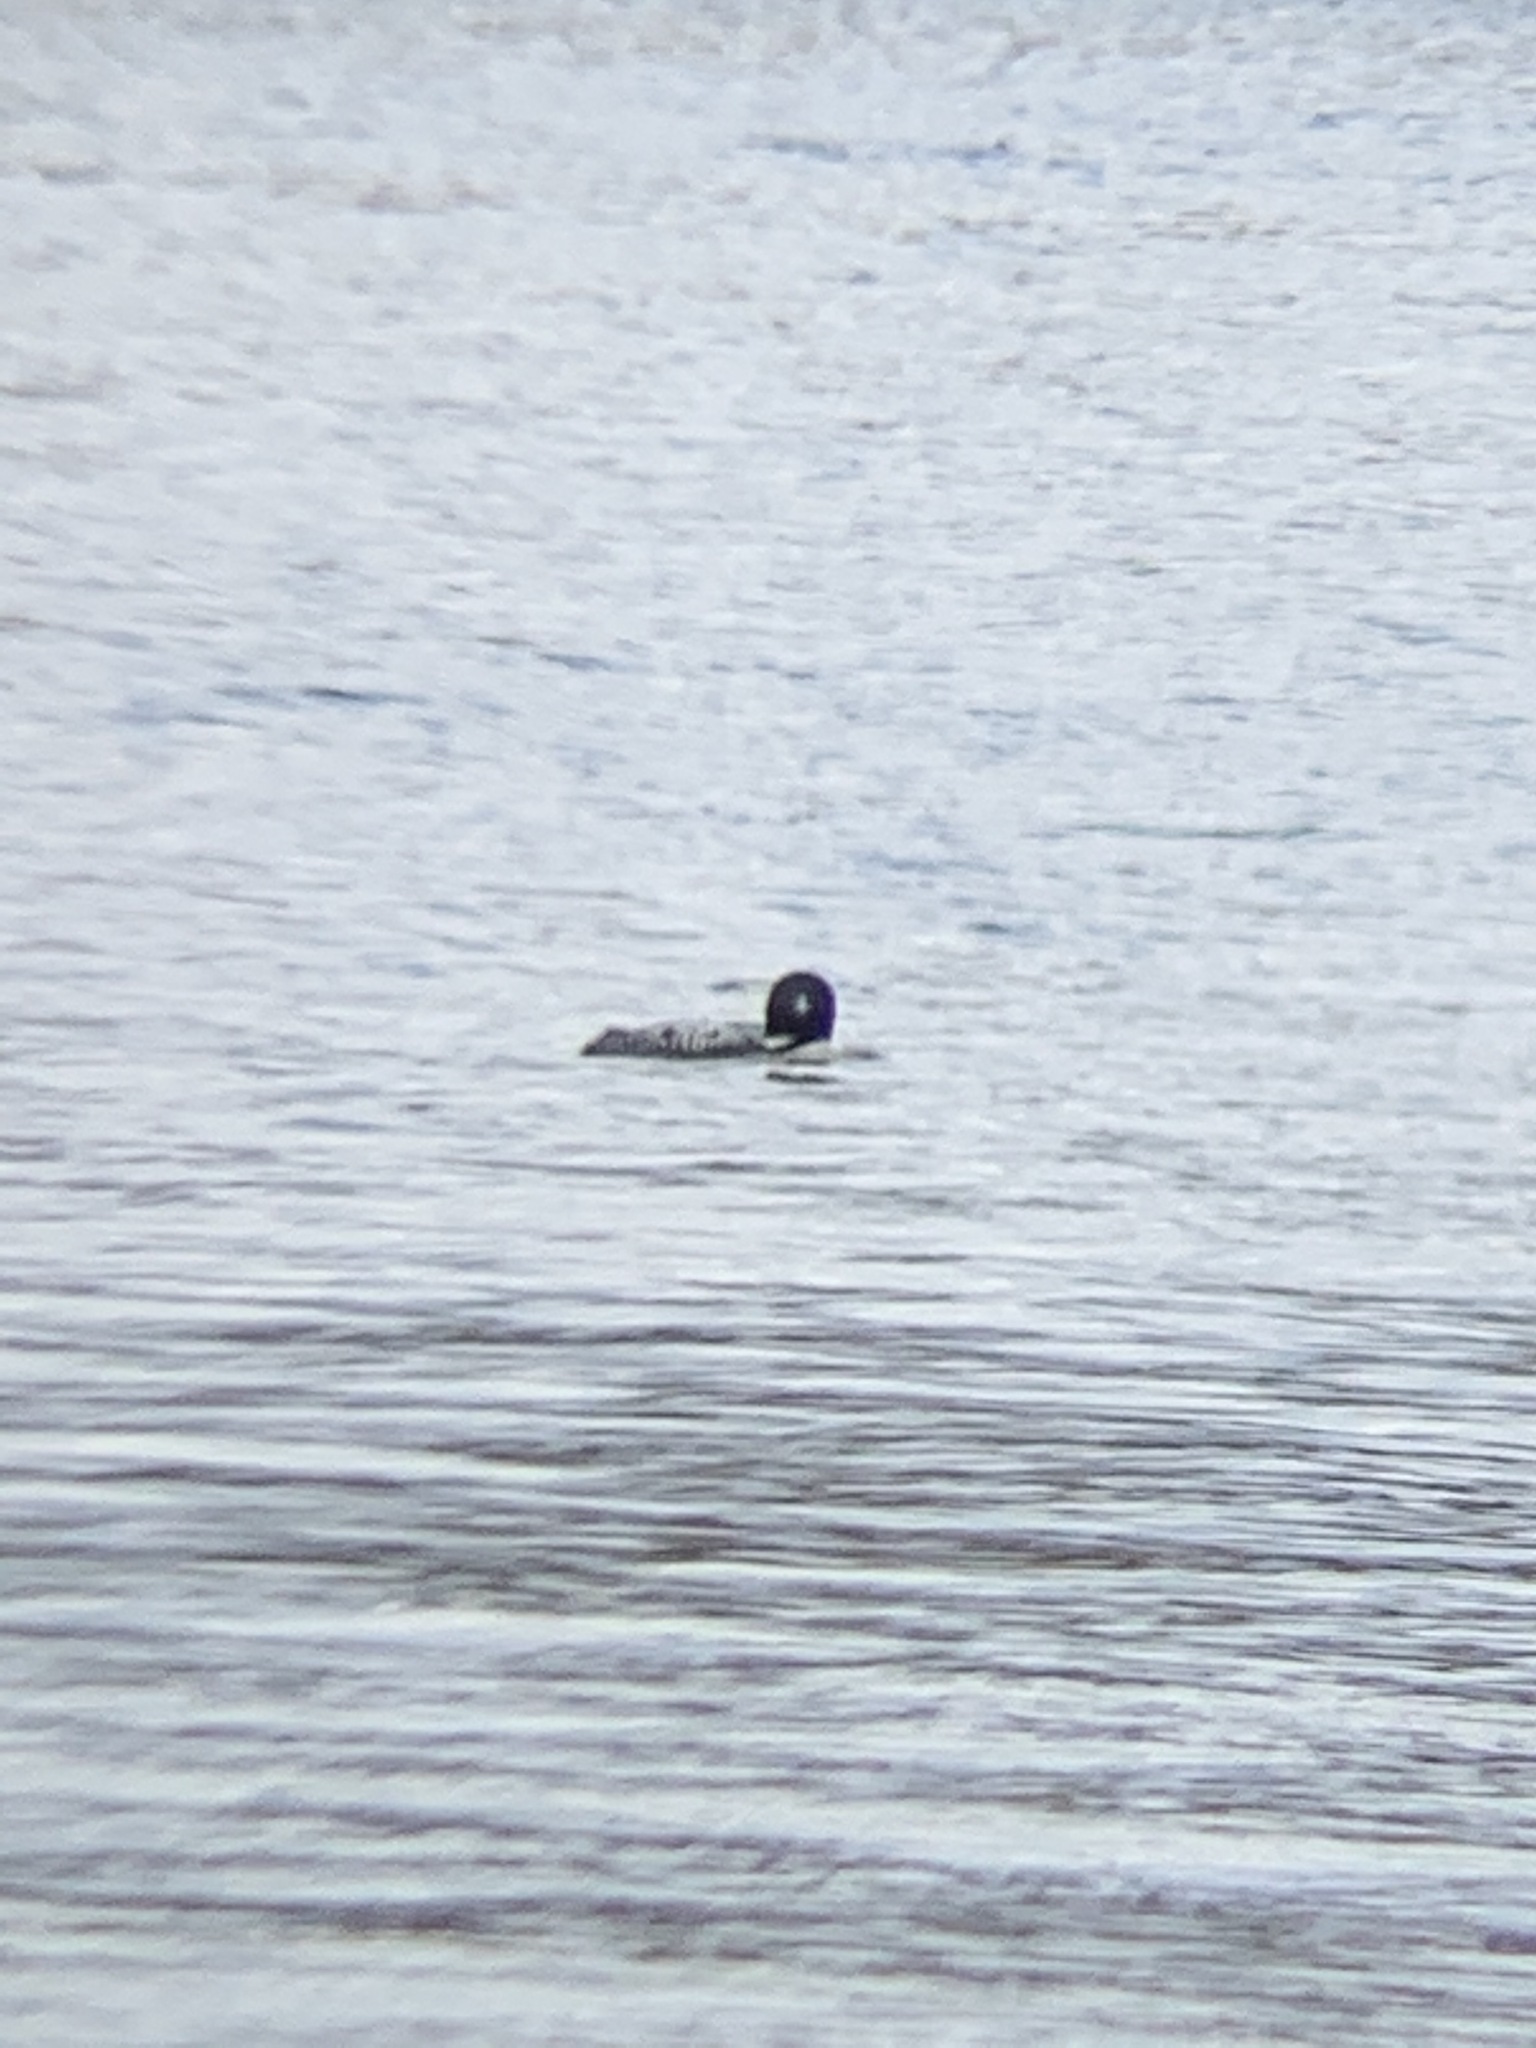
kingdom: Animalia
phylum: Chordata
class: Aves
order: Gaviiformes
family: Gaviidae
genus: Gavia
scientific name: Gavia immer
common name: Common loon
